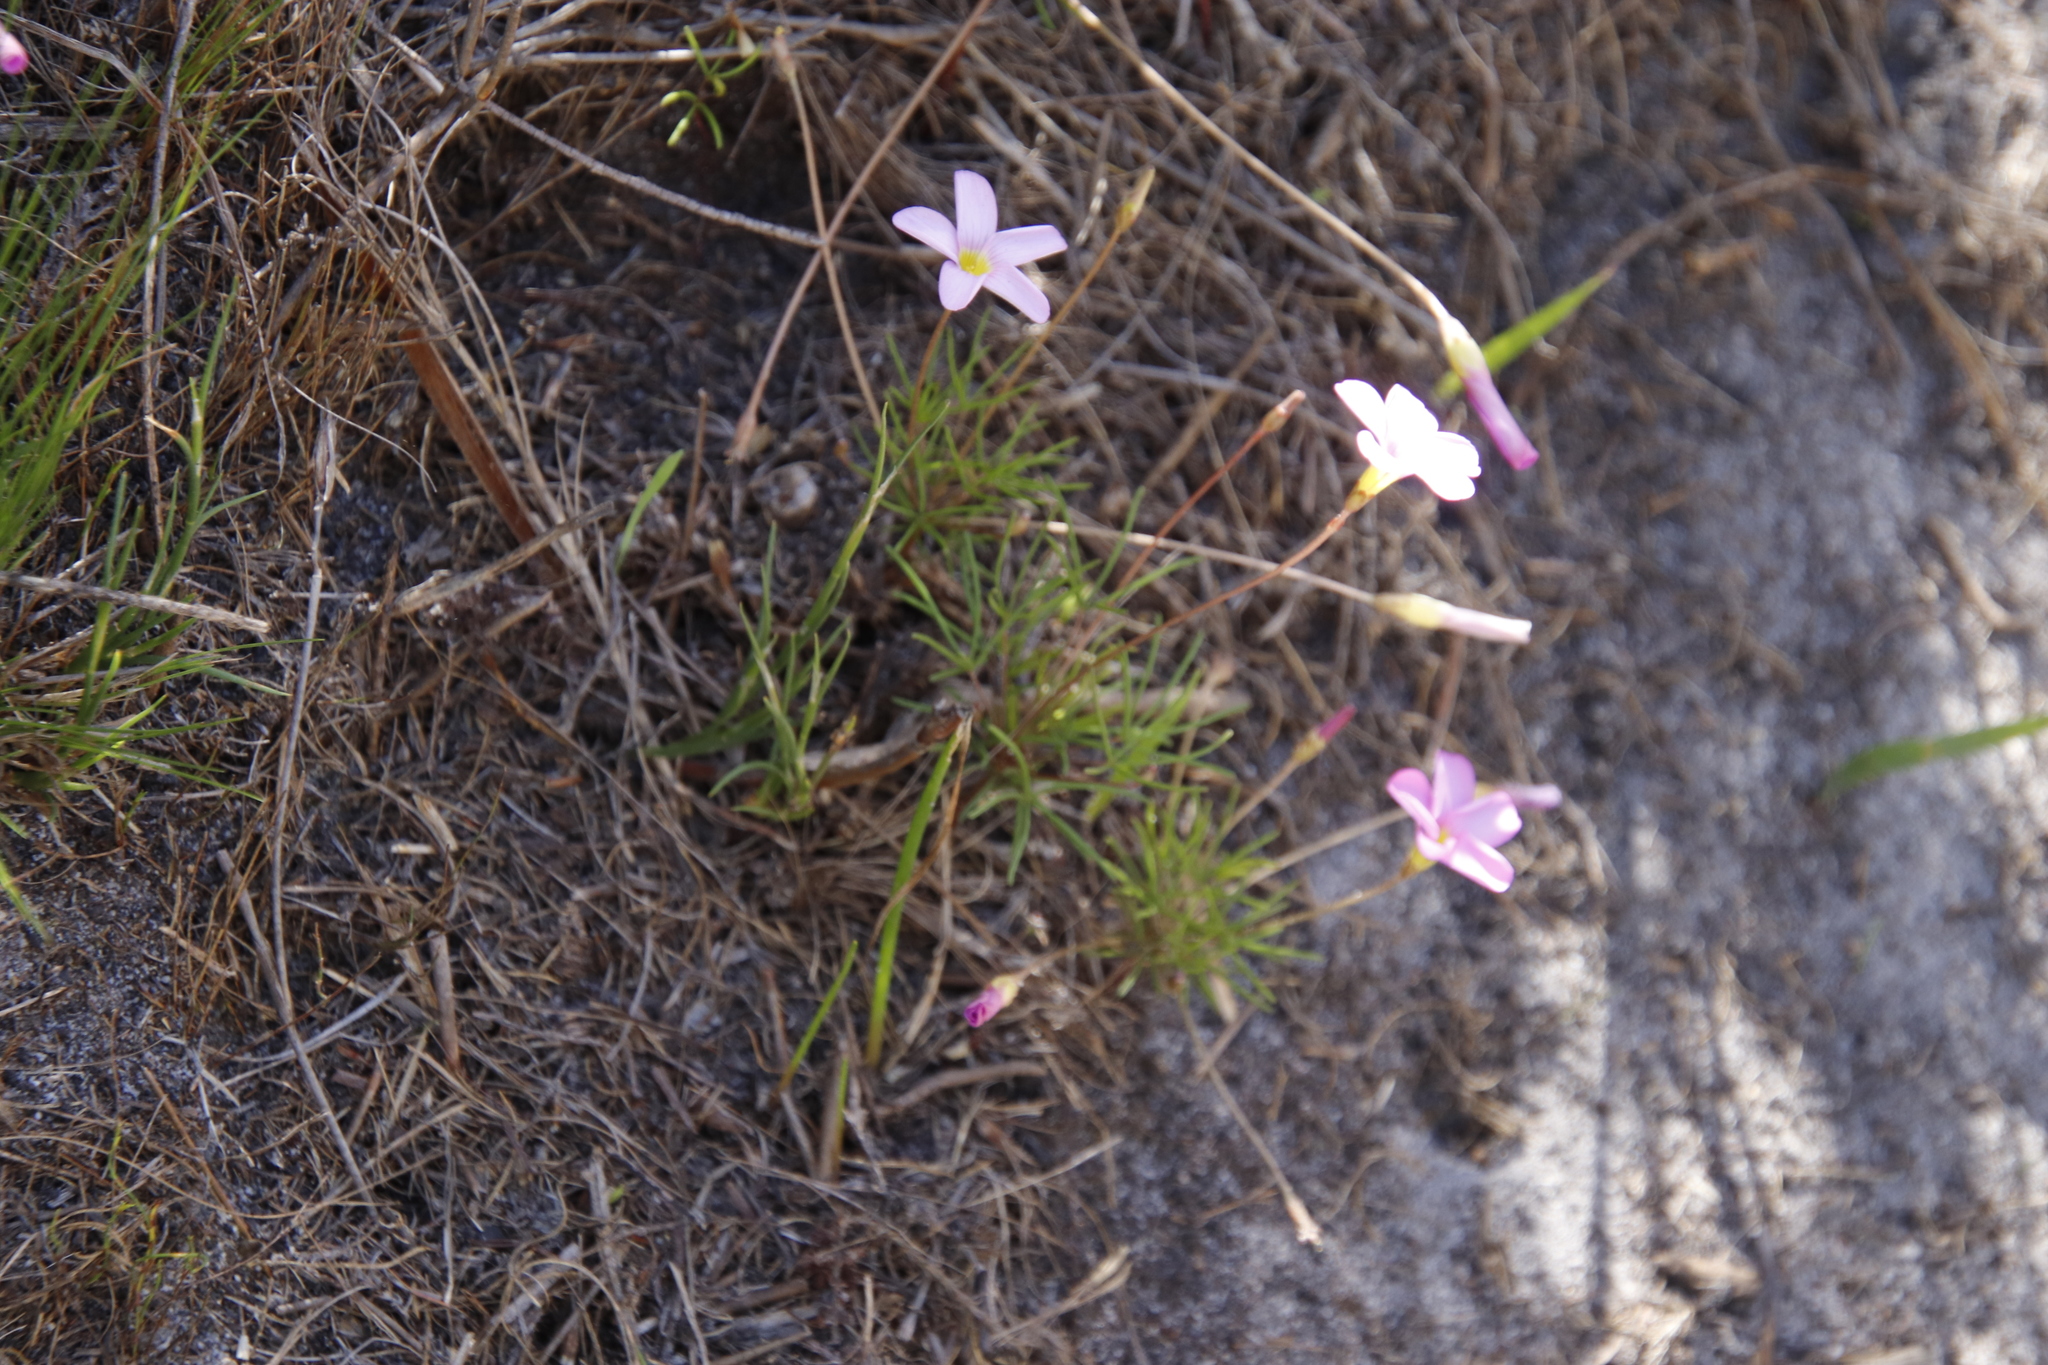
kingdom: Plantae
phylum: Tracheophyta
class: Magnoliopsida
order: Oxalidales
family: Oxalidaceae
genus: Oxalis
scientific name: Oxalis polyphylla
